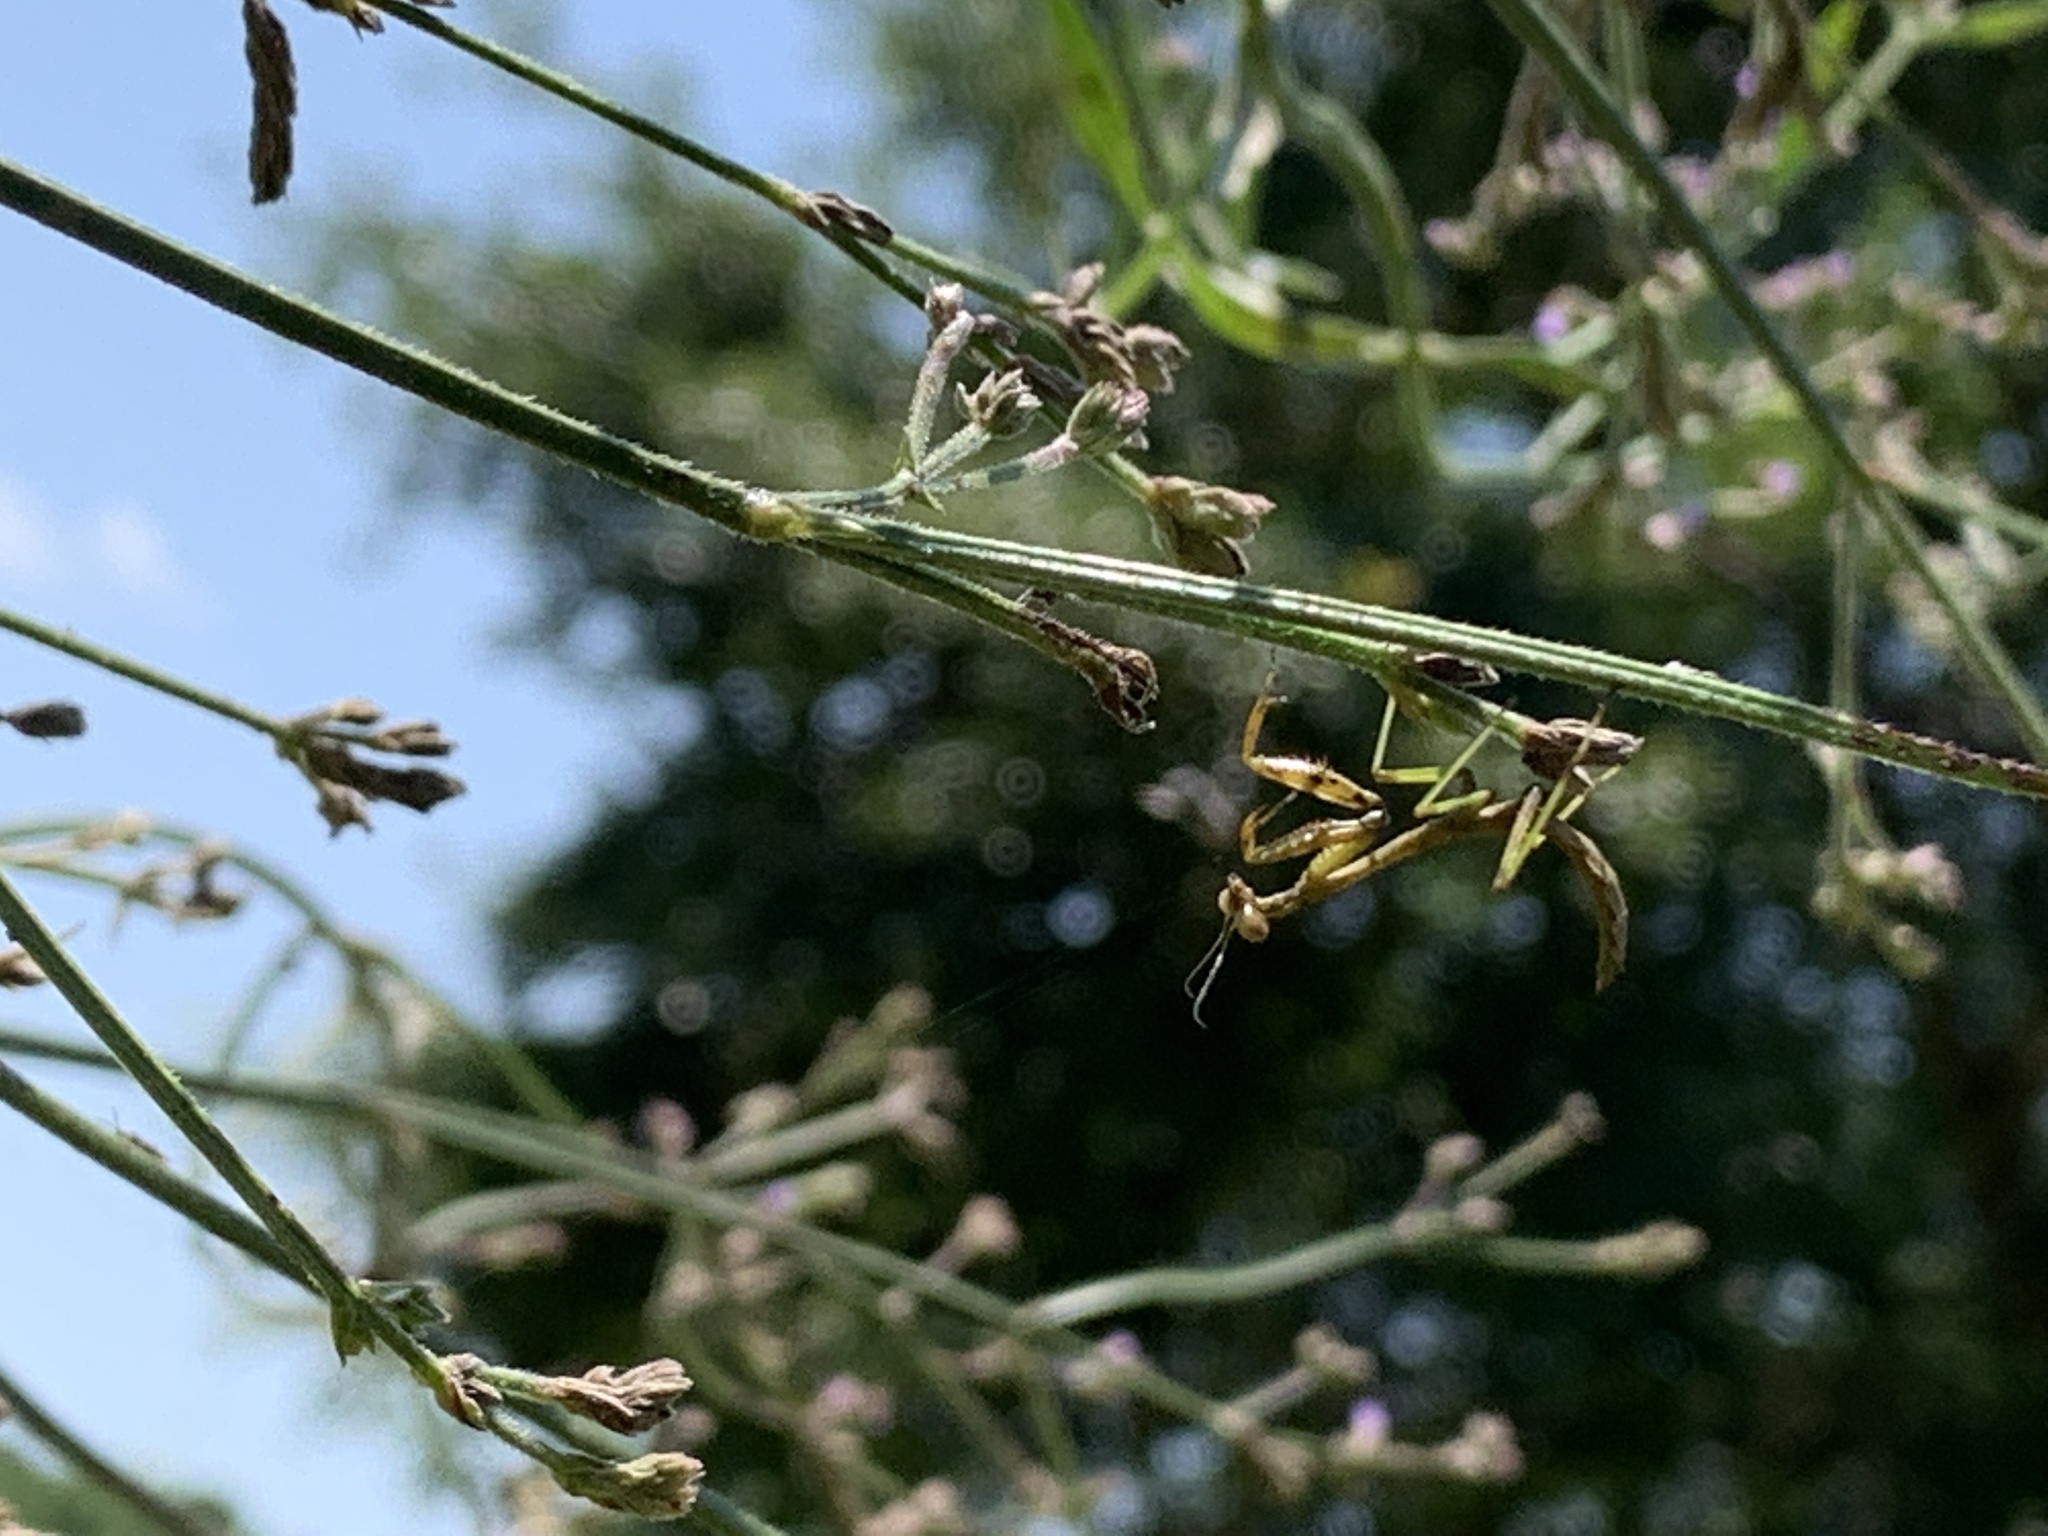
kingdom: Animalia
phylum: Arthropoda
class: Insecta
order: Mantodea
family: Mantidae
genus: Stagmomantis
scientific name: Stagmomantis carolina
